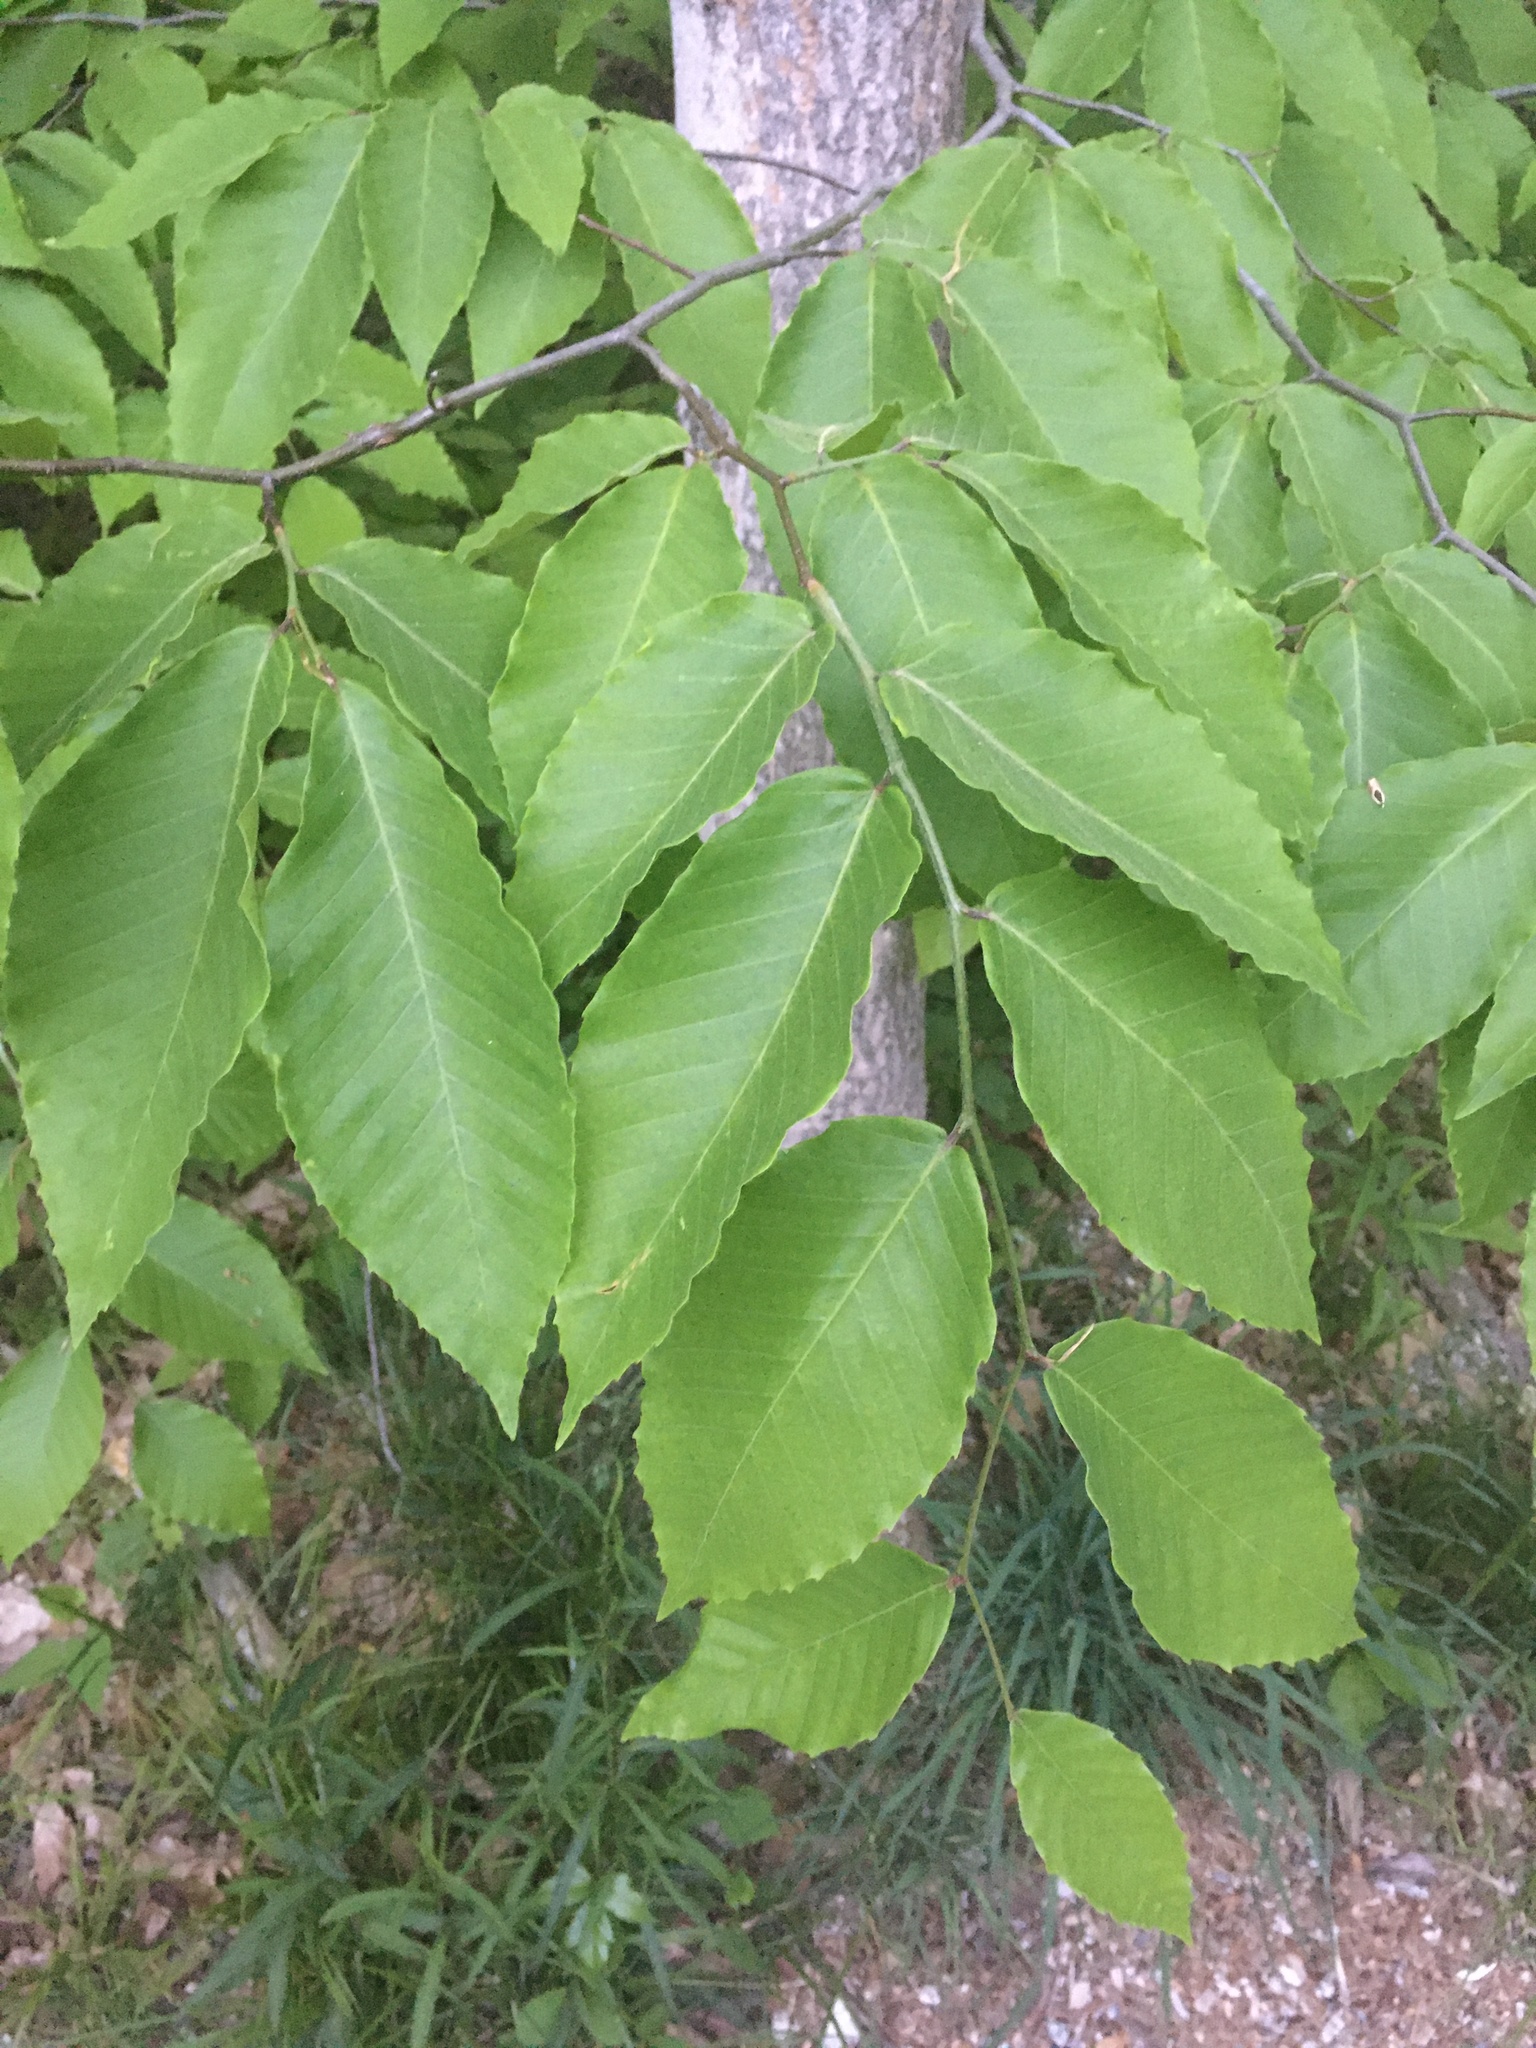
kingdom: Plantae
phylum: Tracheophyta
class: Magnoliopsida
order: Fagales
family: Fagaceae
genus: Fagus
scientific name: Fagus grandifolia
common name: American beech
